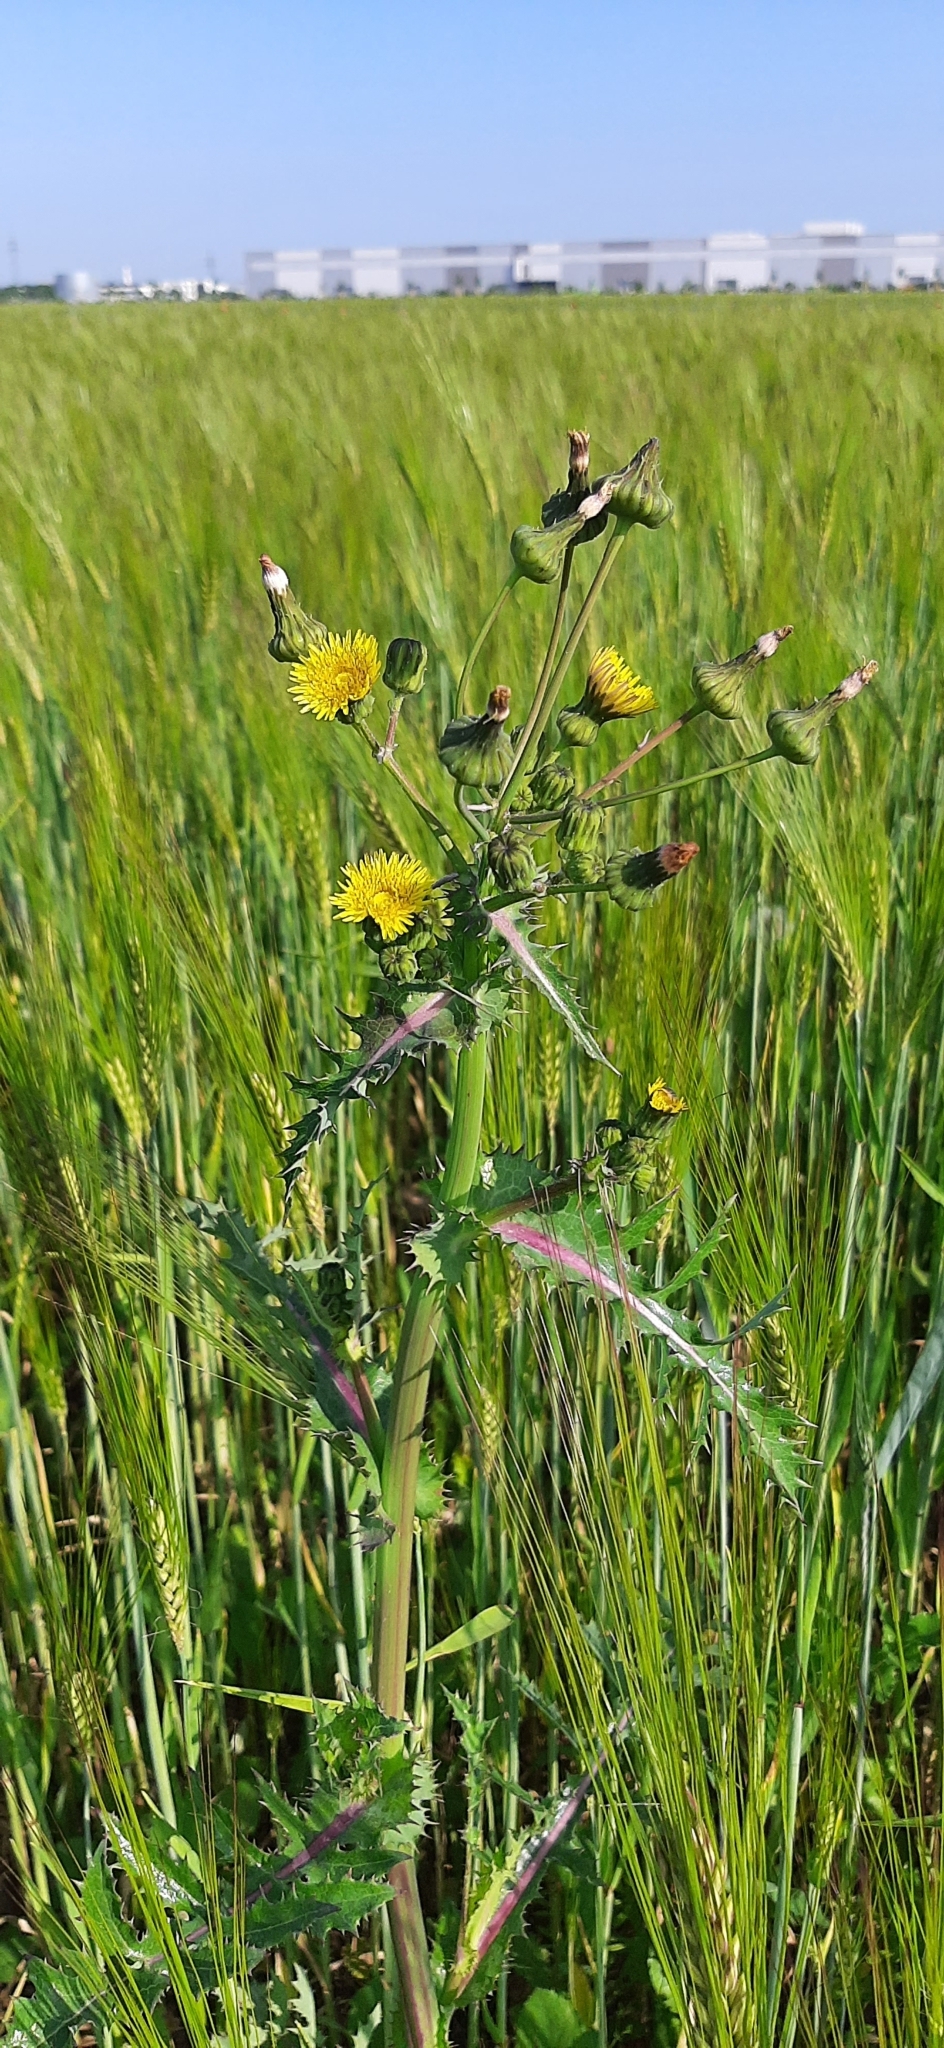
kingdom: Plantae
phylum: Tracheophyta
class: Magnoliopsida
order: Asterales
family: Asteraceae
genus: Sonchus
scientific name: Sonchus asper
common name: Prickly sow-thistle
